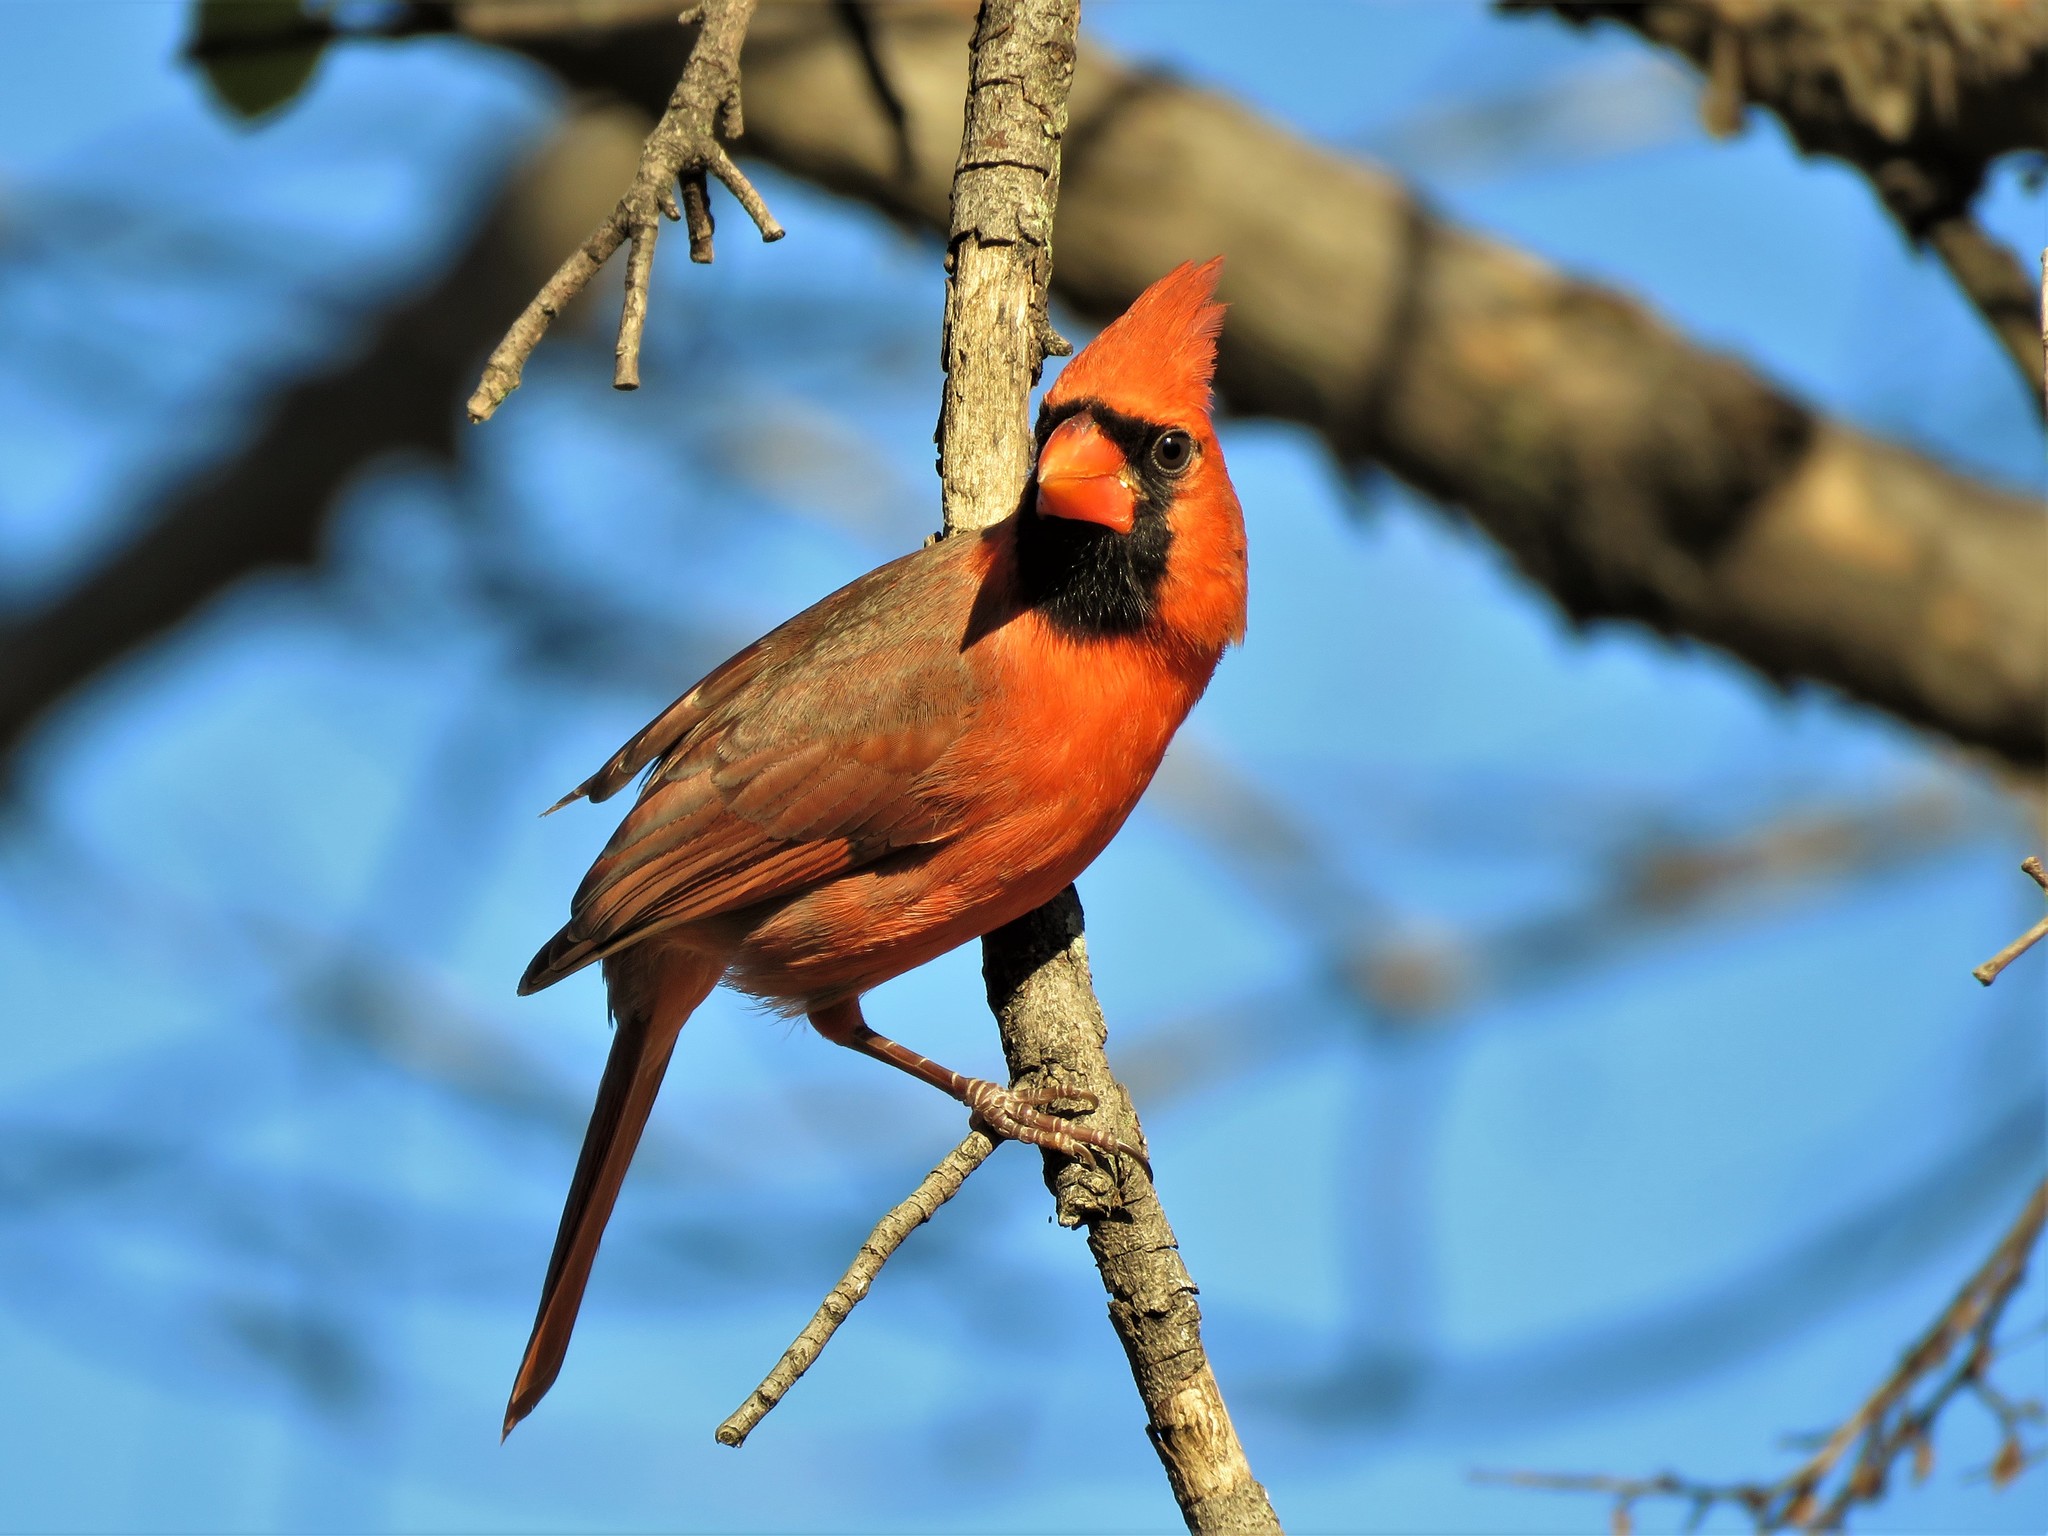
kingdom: Animalia
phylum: Chordata
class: Aves
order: Passeriformes
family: Cardinalidae
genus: Cardinalis
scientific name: Cardinalis cardinalis
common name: Northern cardinal
